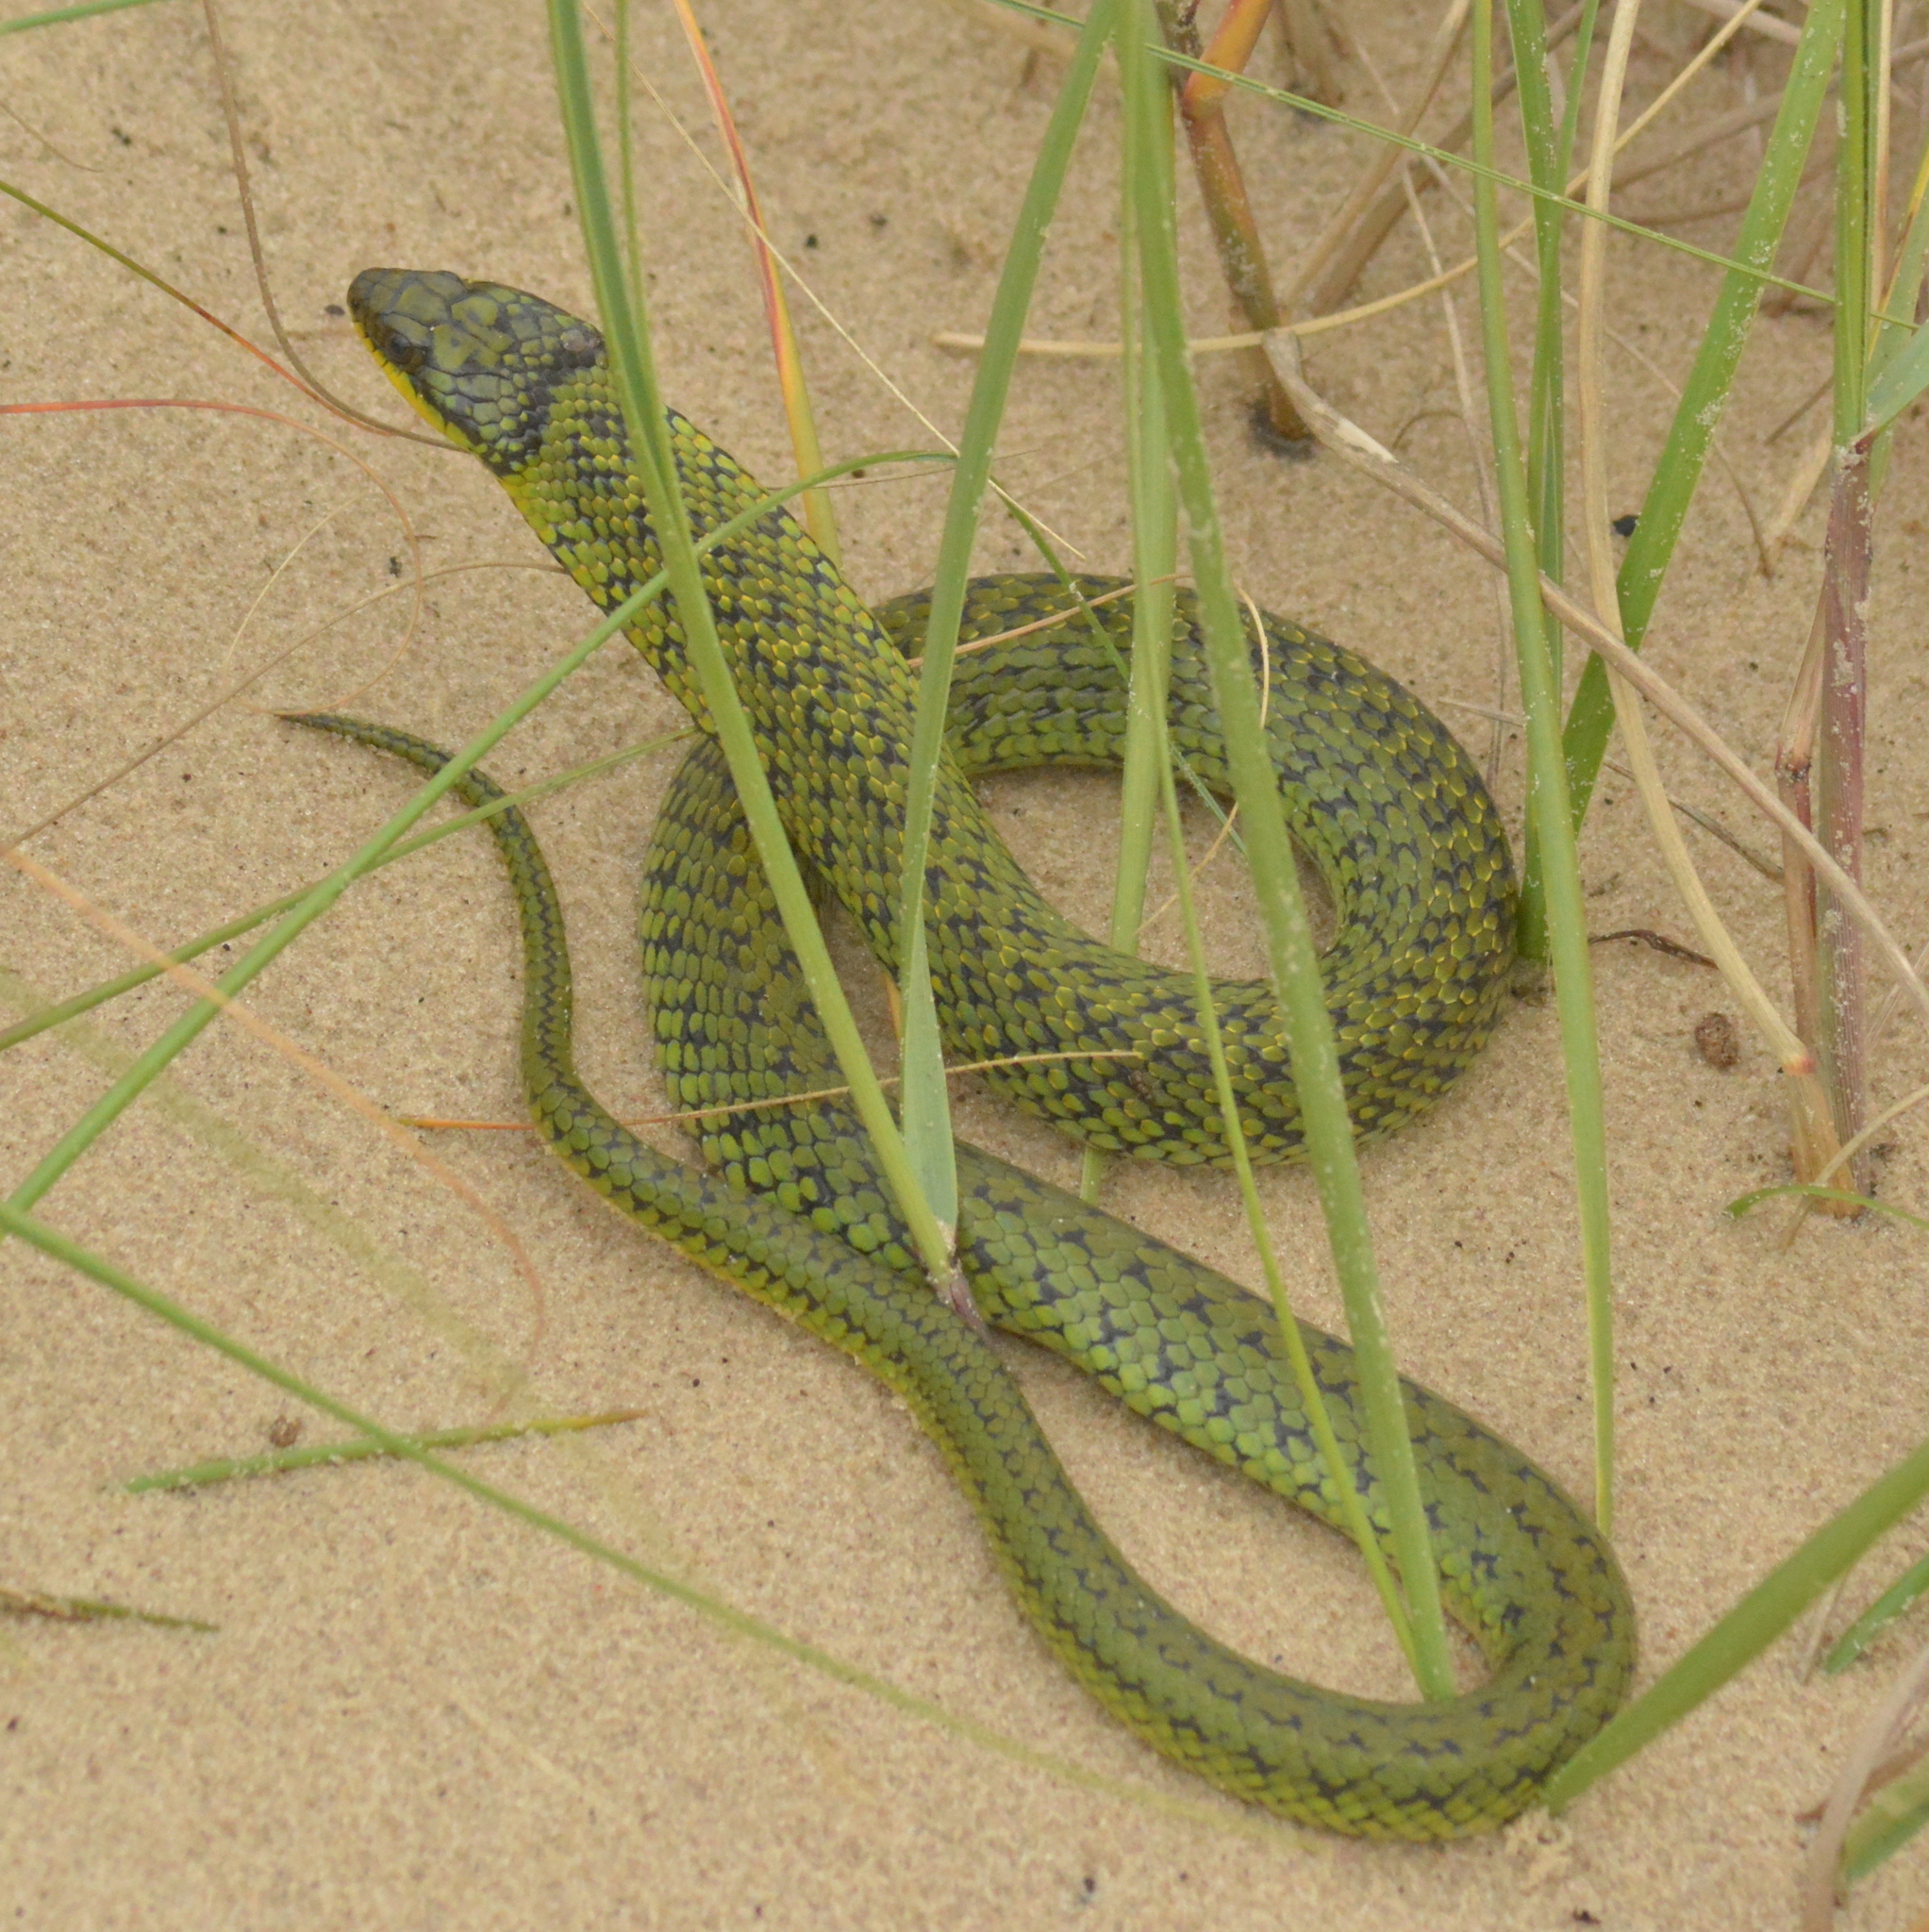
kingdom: Animalia
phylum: Chordata
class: Squamata
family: Colubridae
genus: Erythrolamprus
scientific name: Erythrolamprus poecilogyrus
